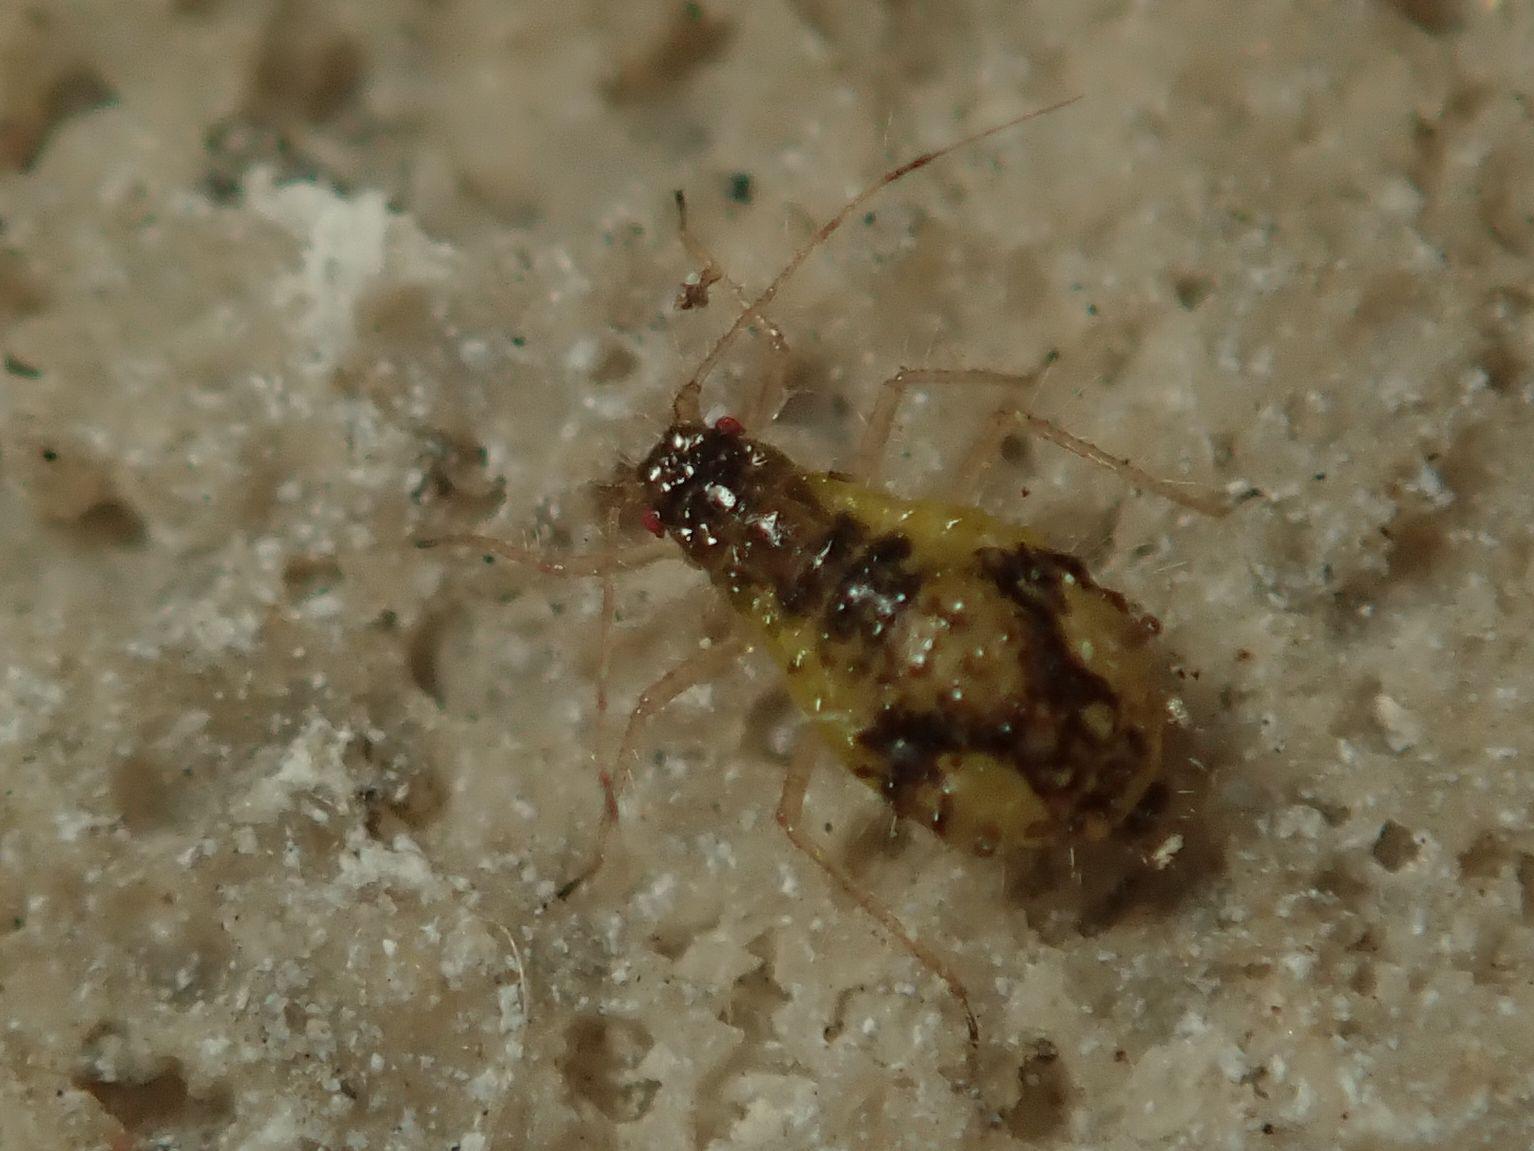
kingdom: Animalia
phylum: Arthropoda
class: Insecta
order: Hemiptera
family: Aphididae
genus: Periphyllus
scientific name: Periphyllus lyropictus
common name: Norway maple aphid
